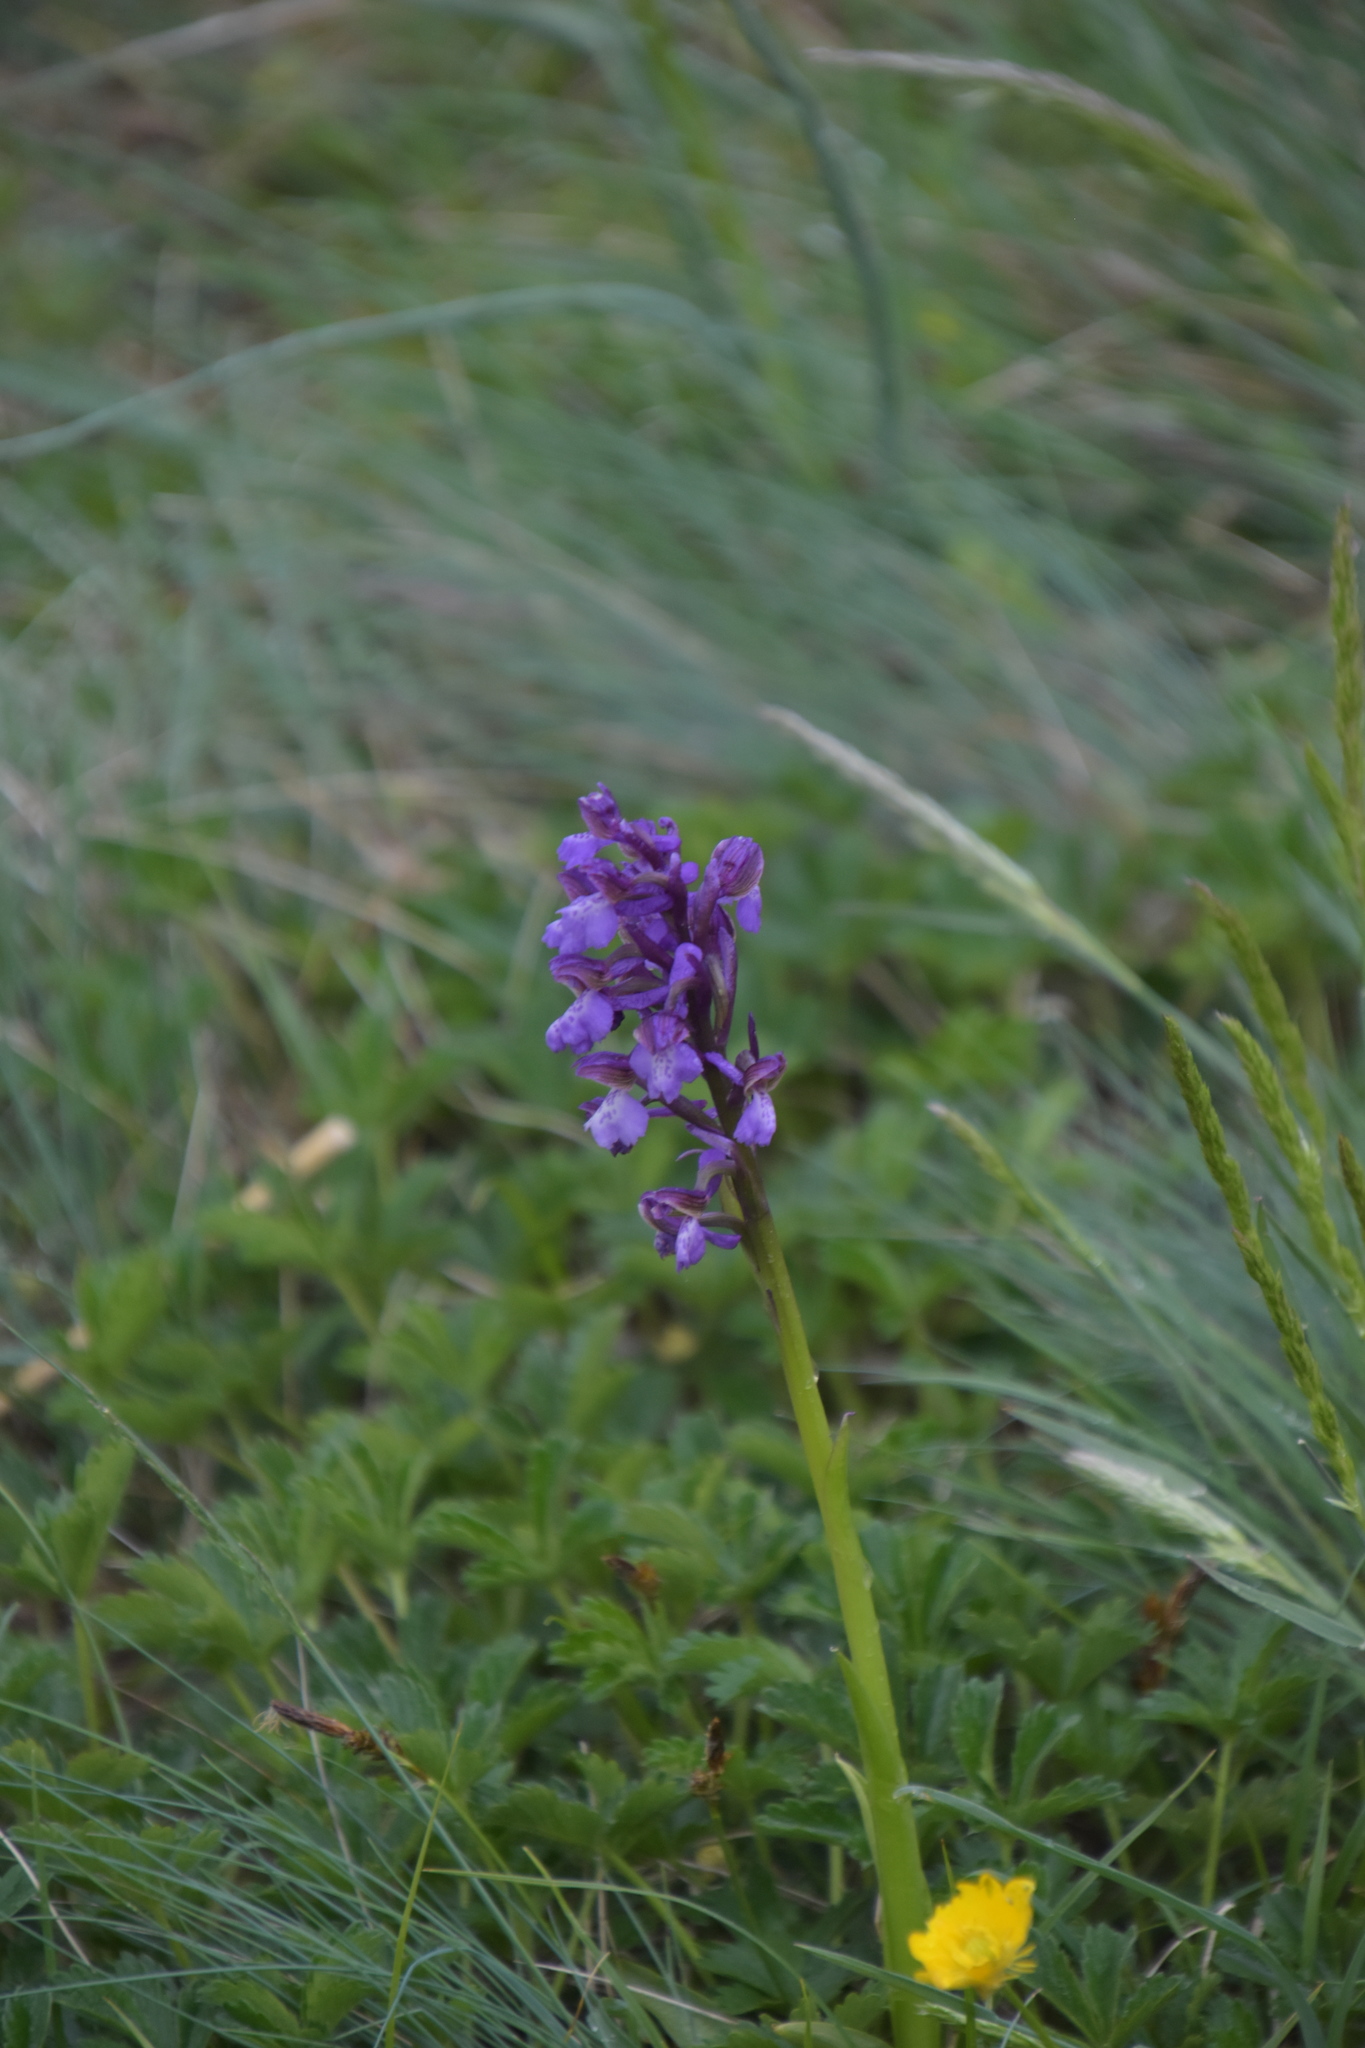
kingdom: Plantae
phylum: Tracheophyta
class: Liliopsida
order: Asparagales
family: Orchidaceae
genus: Anacamptis
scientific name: Anacamptis morio
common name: Green-winged orchid
